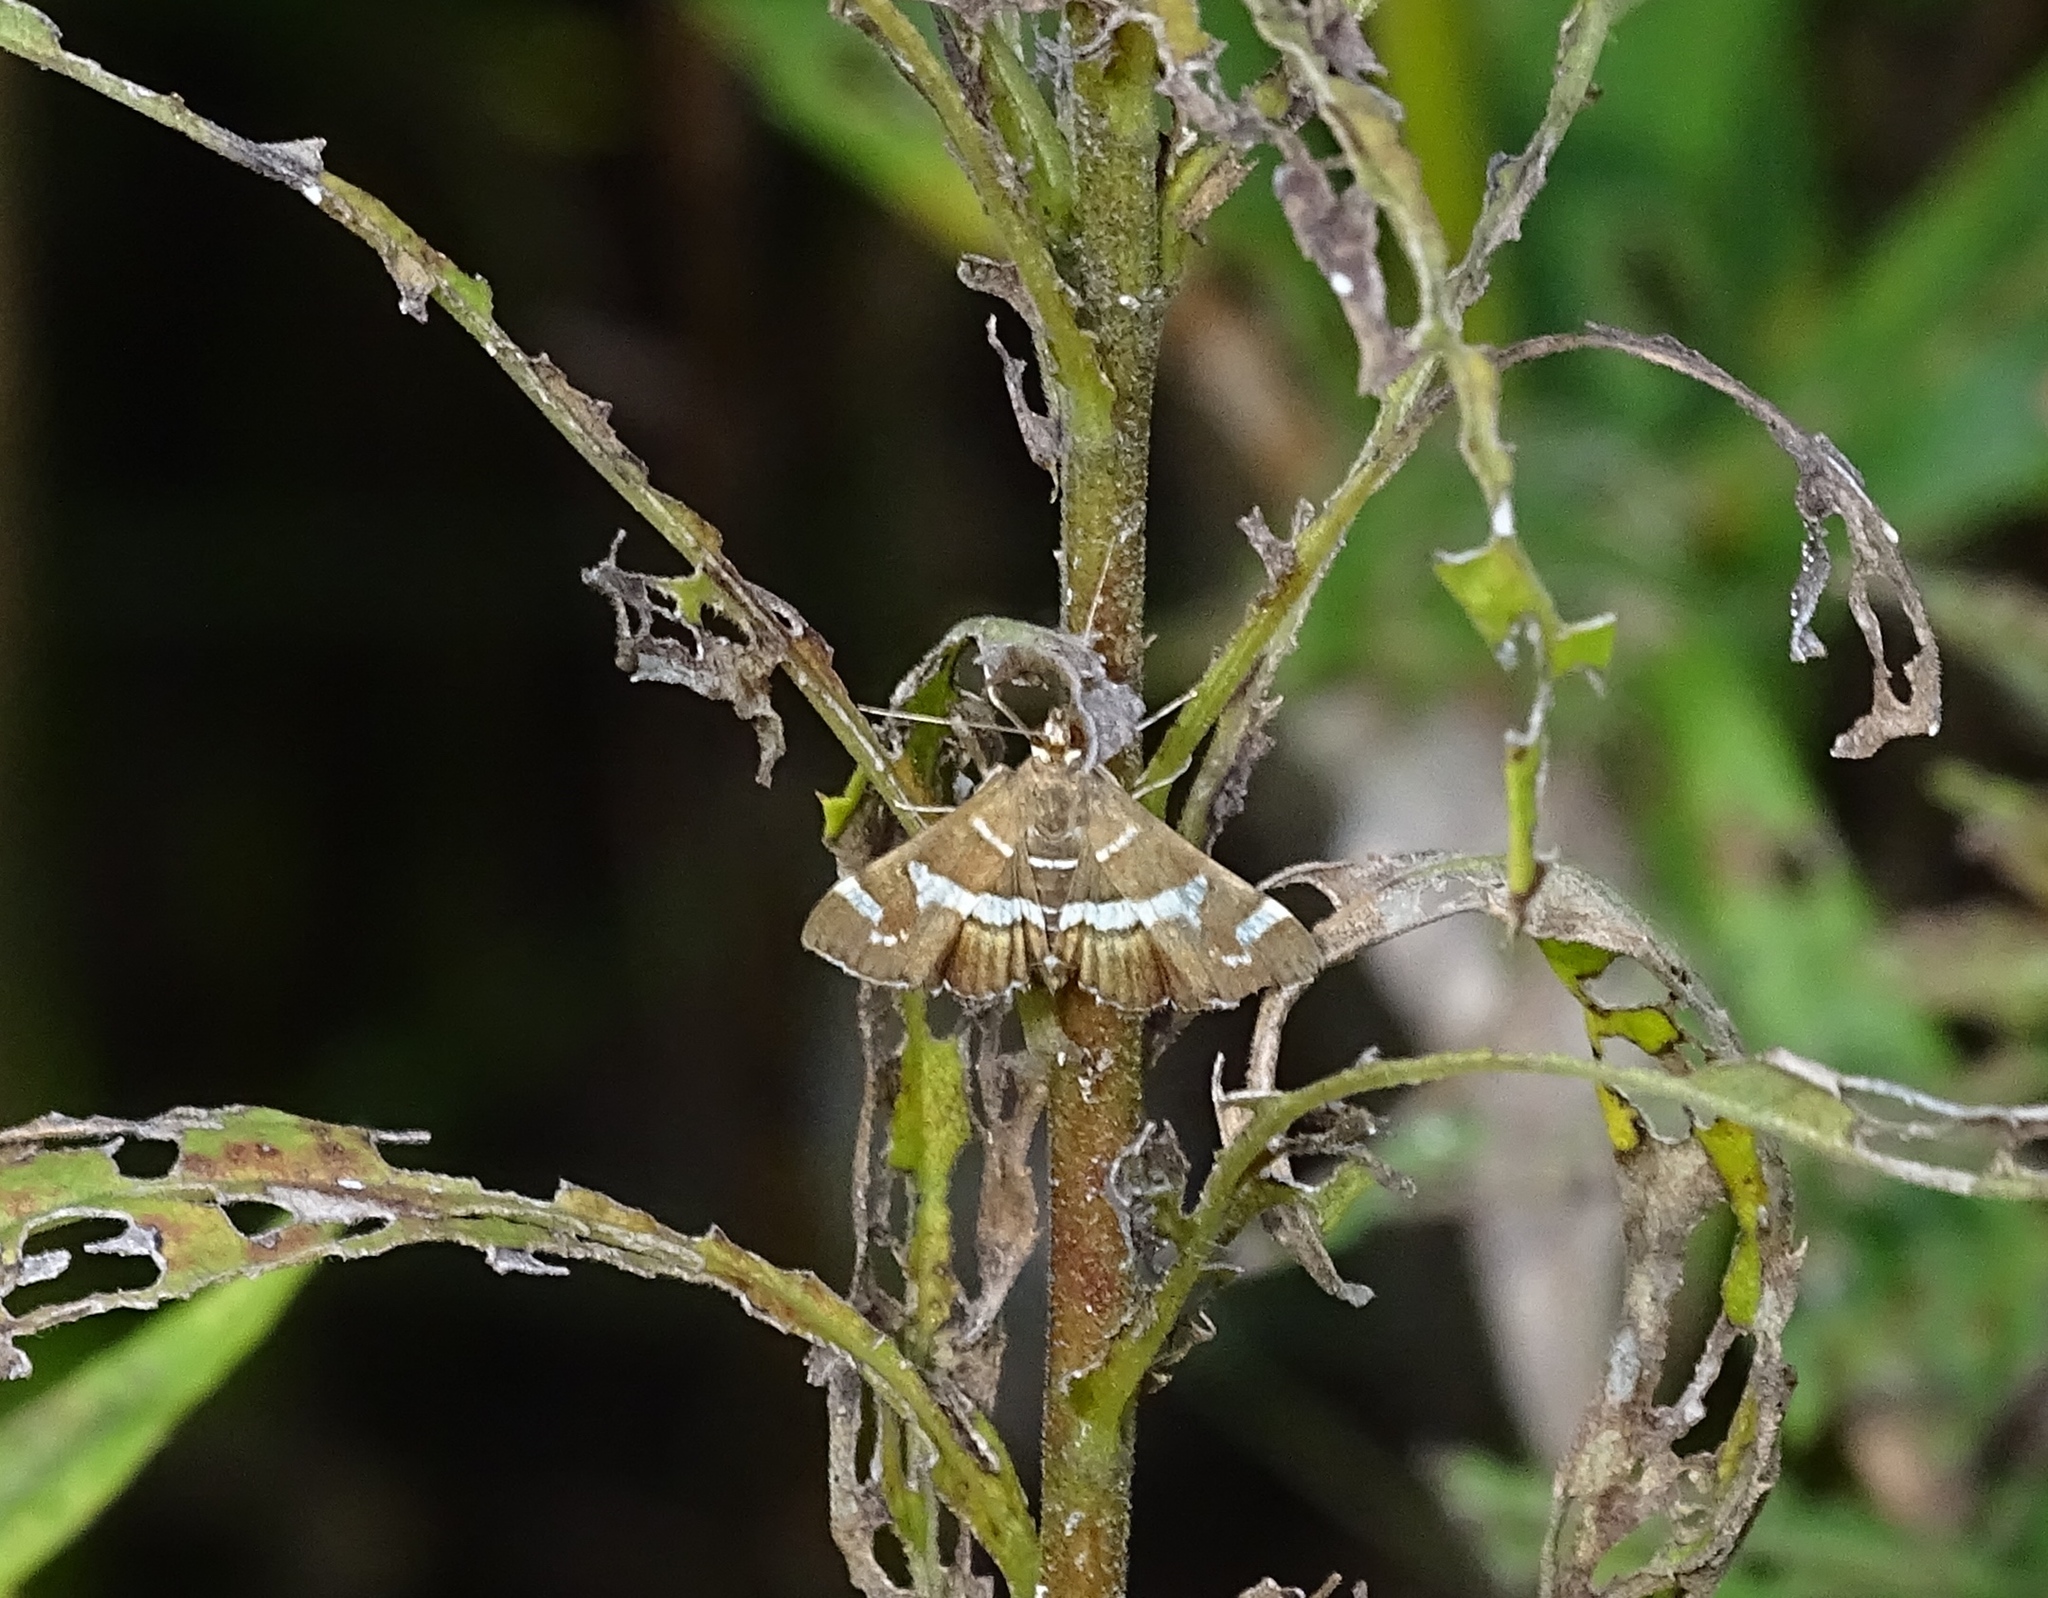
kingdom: Animalia
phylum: Arthropoda
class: Insecta
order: Lepidoptera
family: Crambidae
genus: Spoladea
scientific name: Spoladea recurvalis
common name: Beet webworm moth
